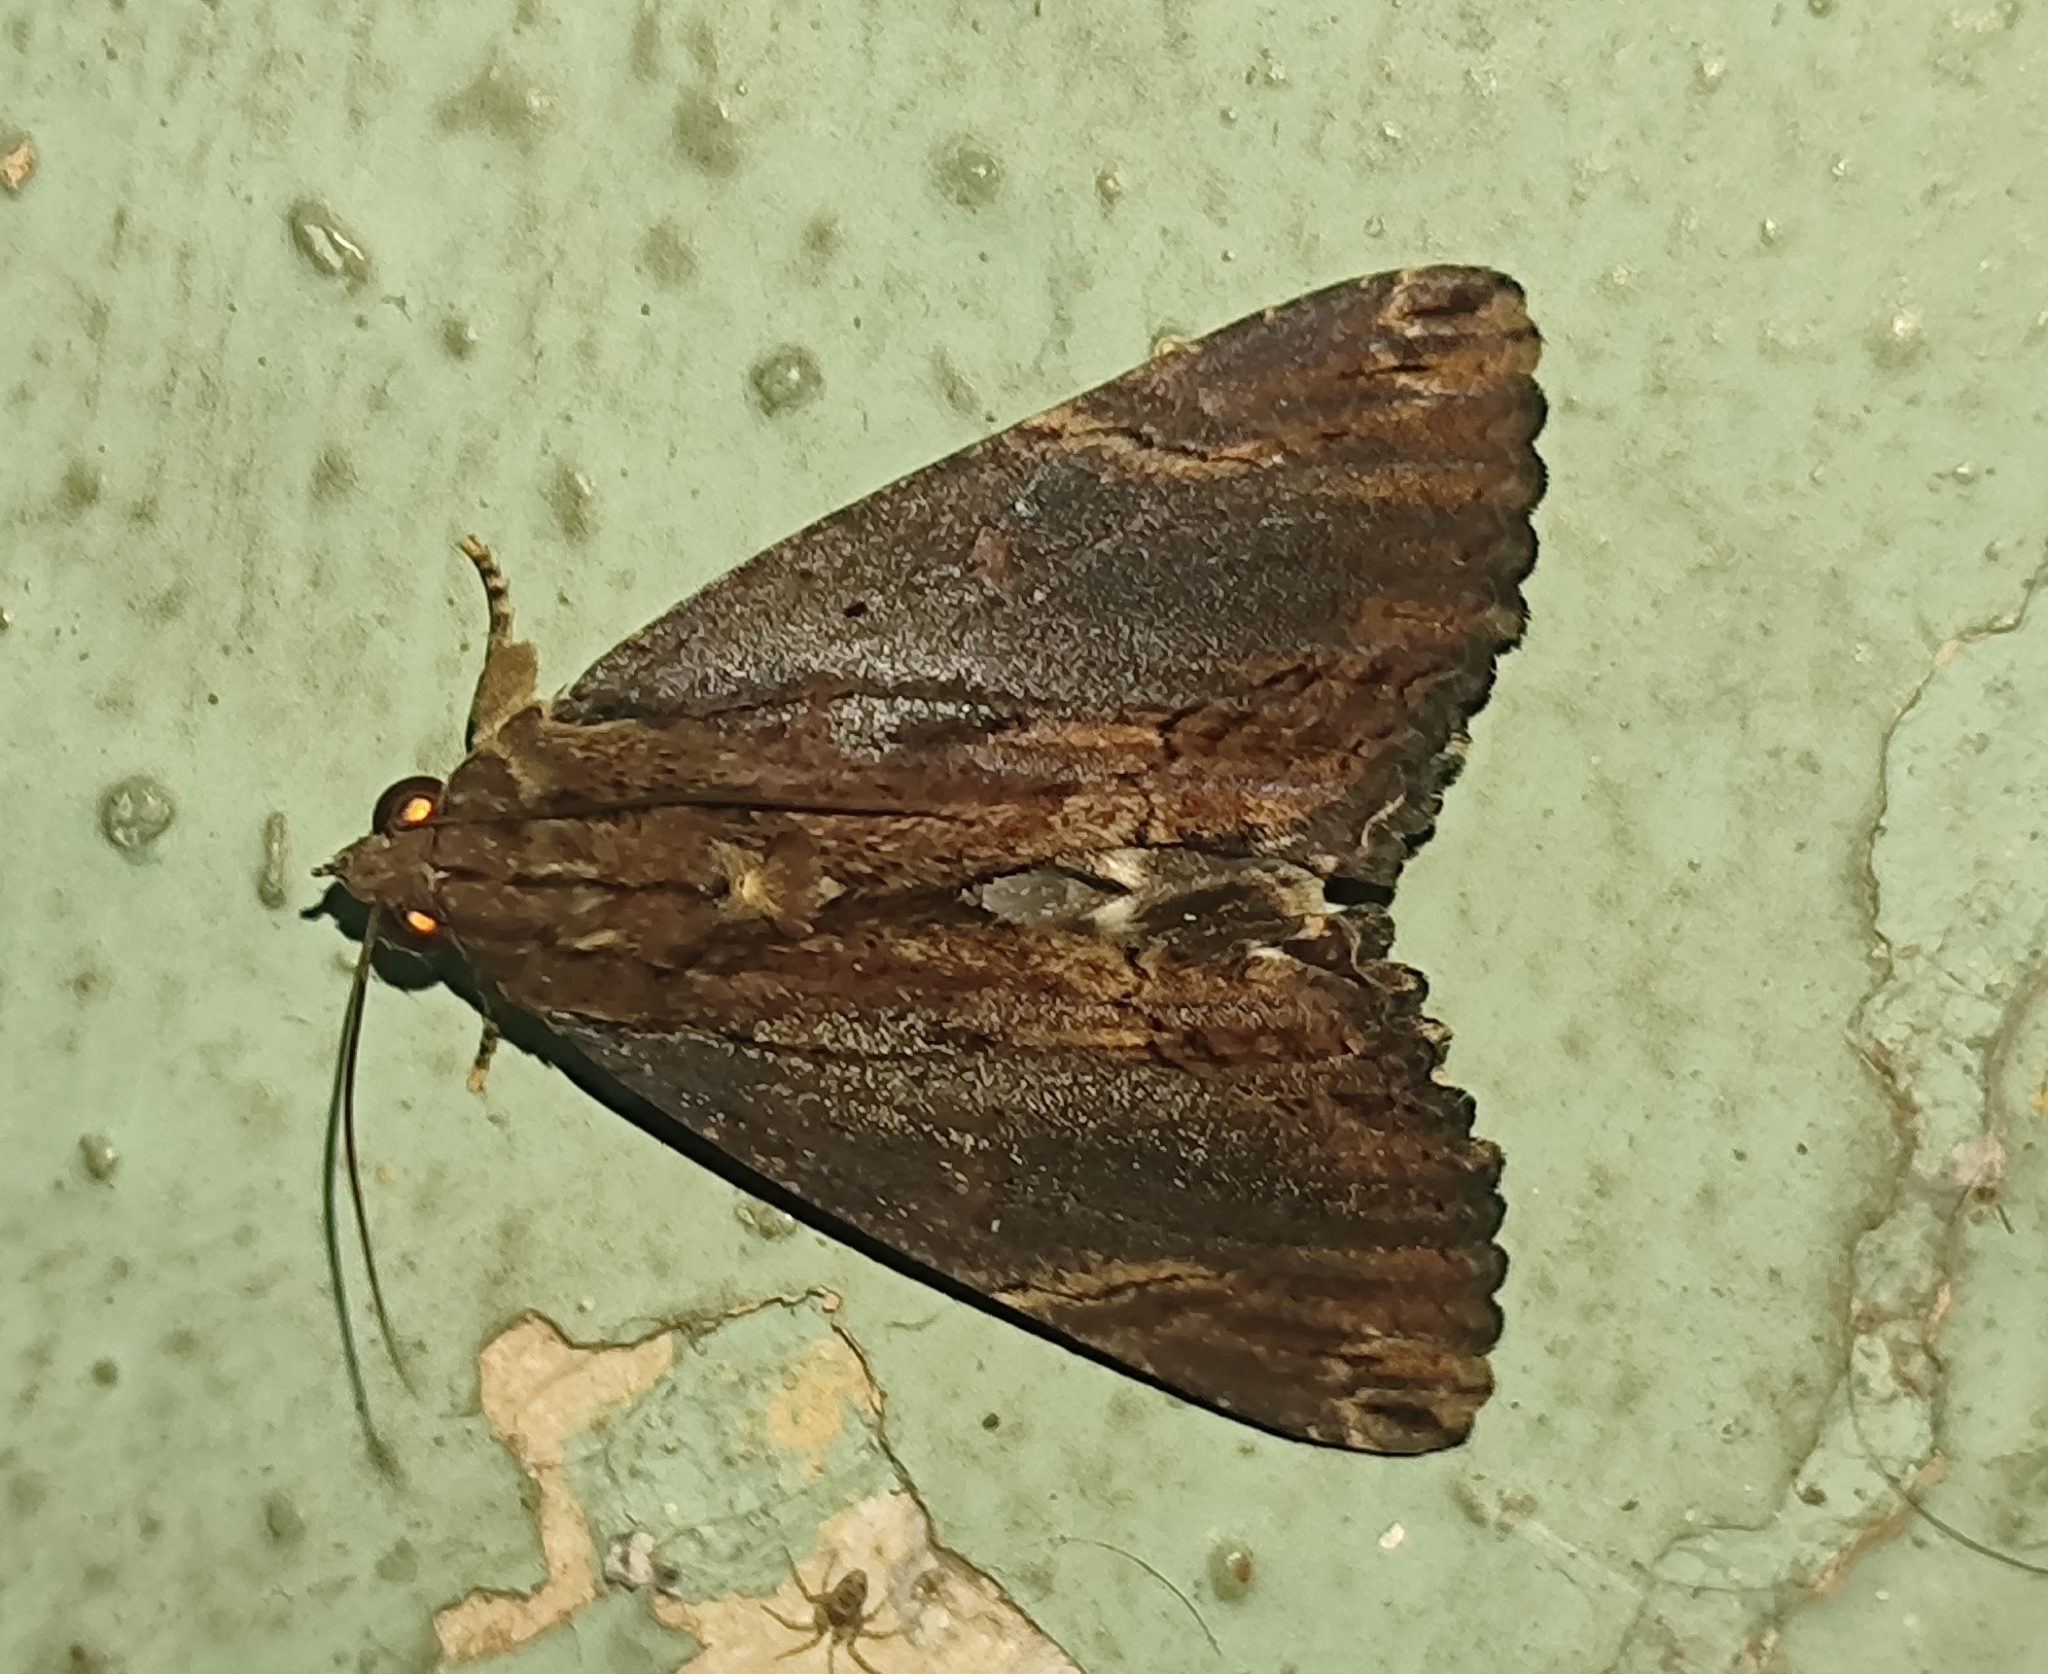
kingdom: Animalia
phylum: Arthropoda
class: Insecta
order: Lepidoptera
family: Erebidae
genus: Ercheia
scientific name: Ercheia cyllaria
